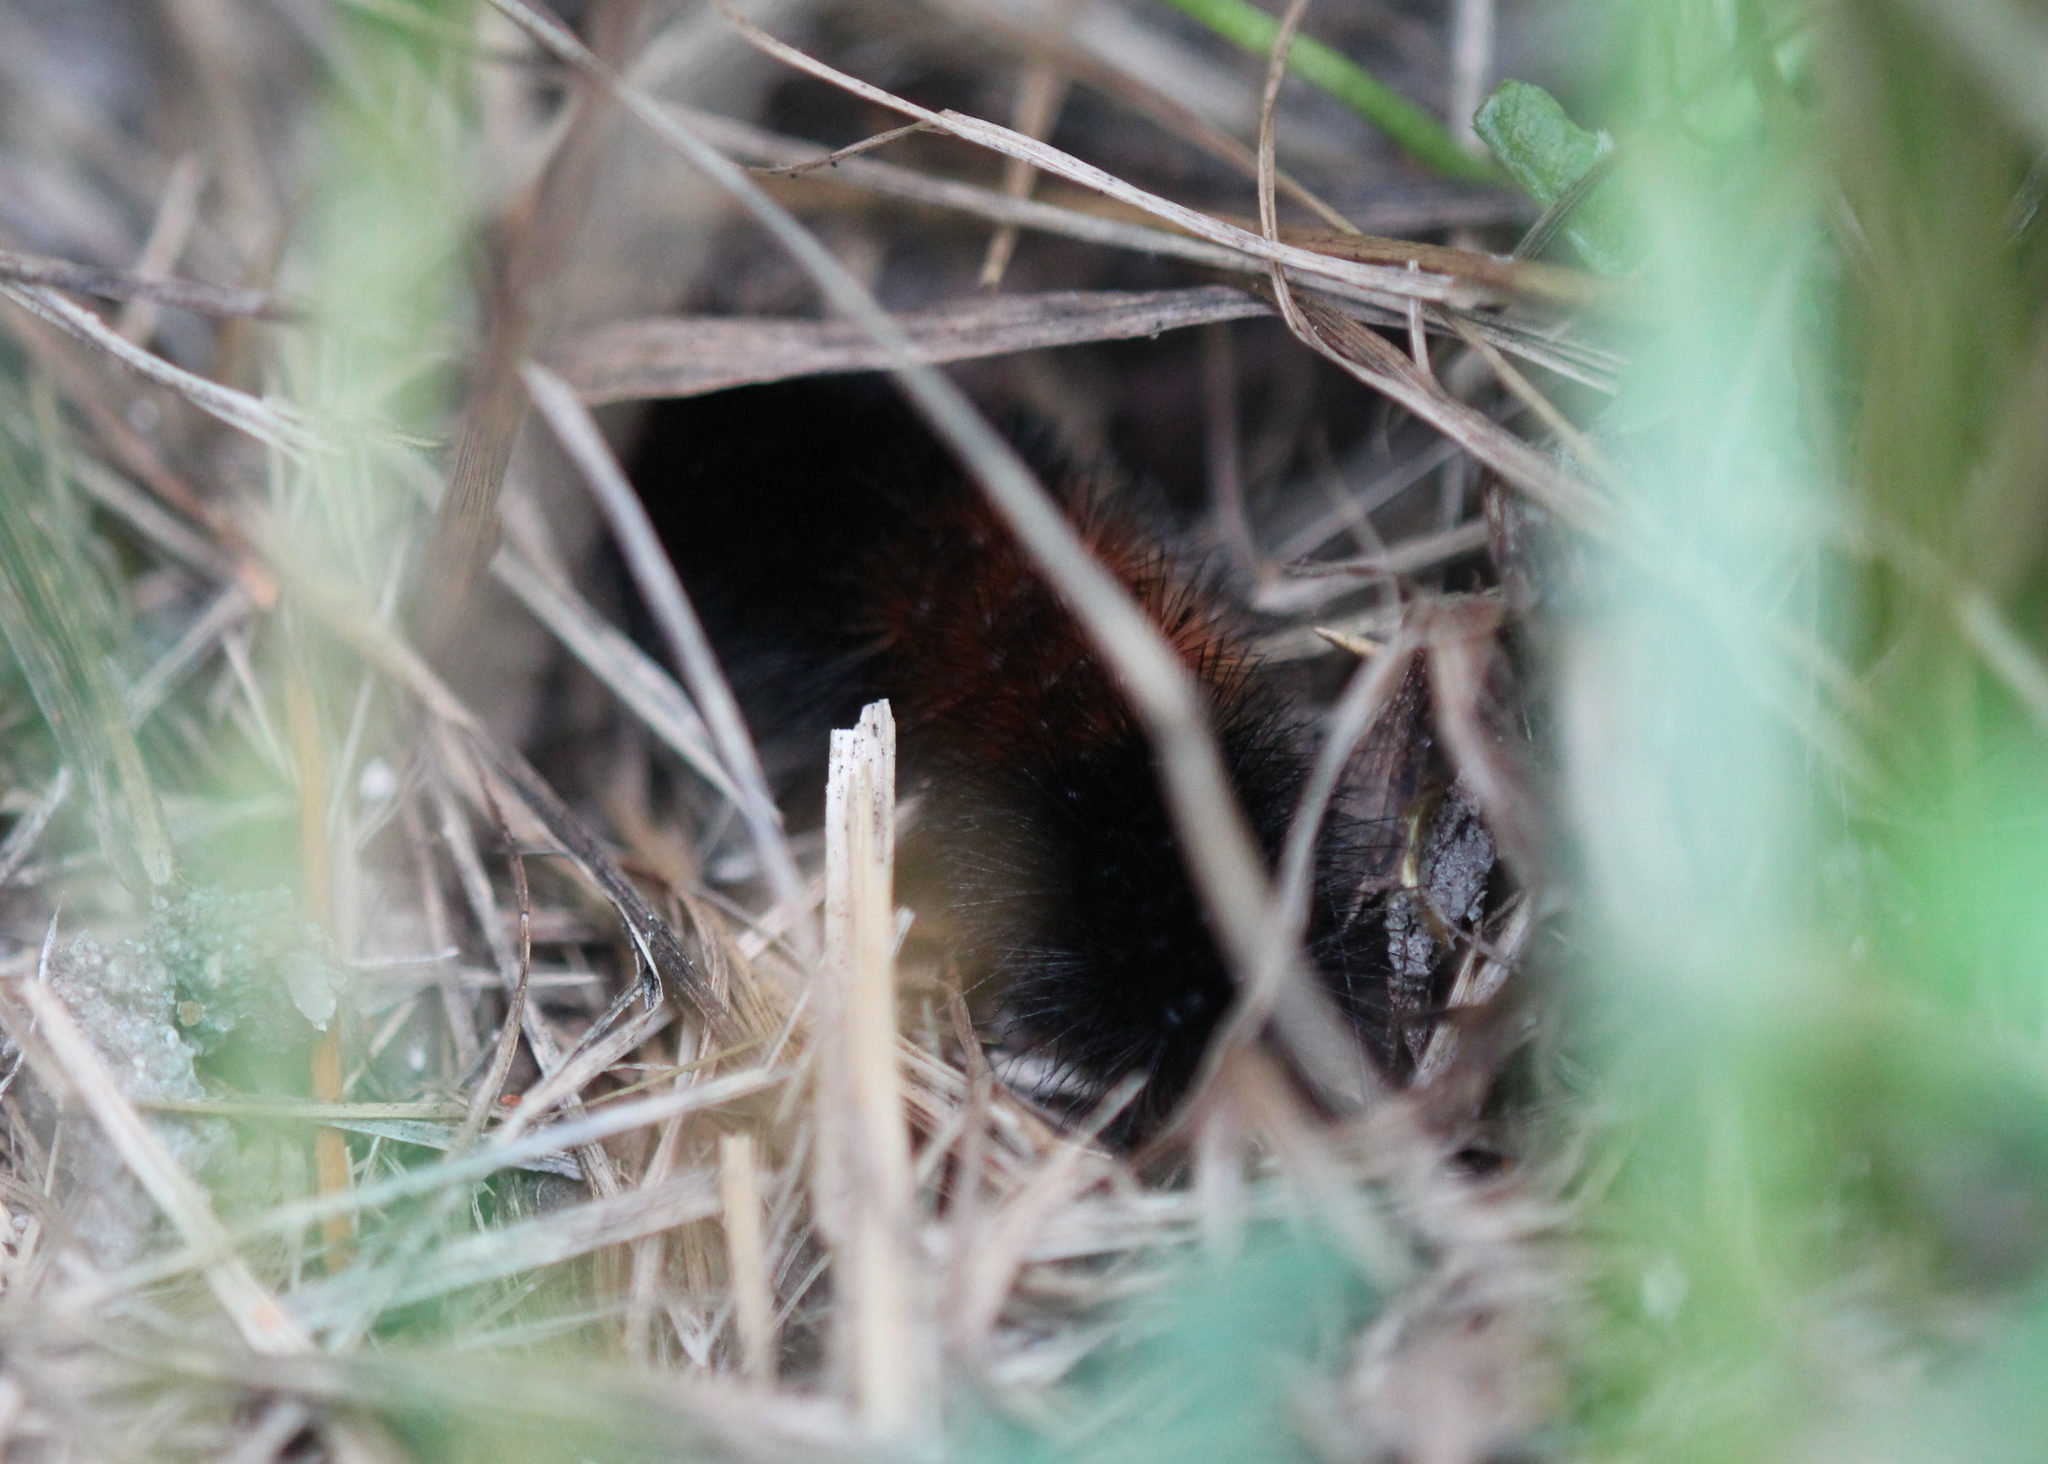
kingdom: Animalia
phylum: Arthropoda
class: Insecta
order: Lepidoptera
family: Erebidae
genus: Pyrrharctia
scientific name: Pyrrharctia isabella
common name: Isabella tiger moth
